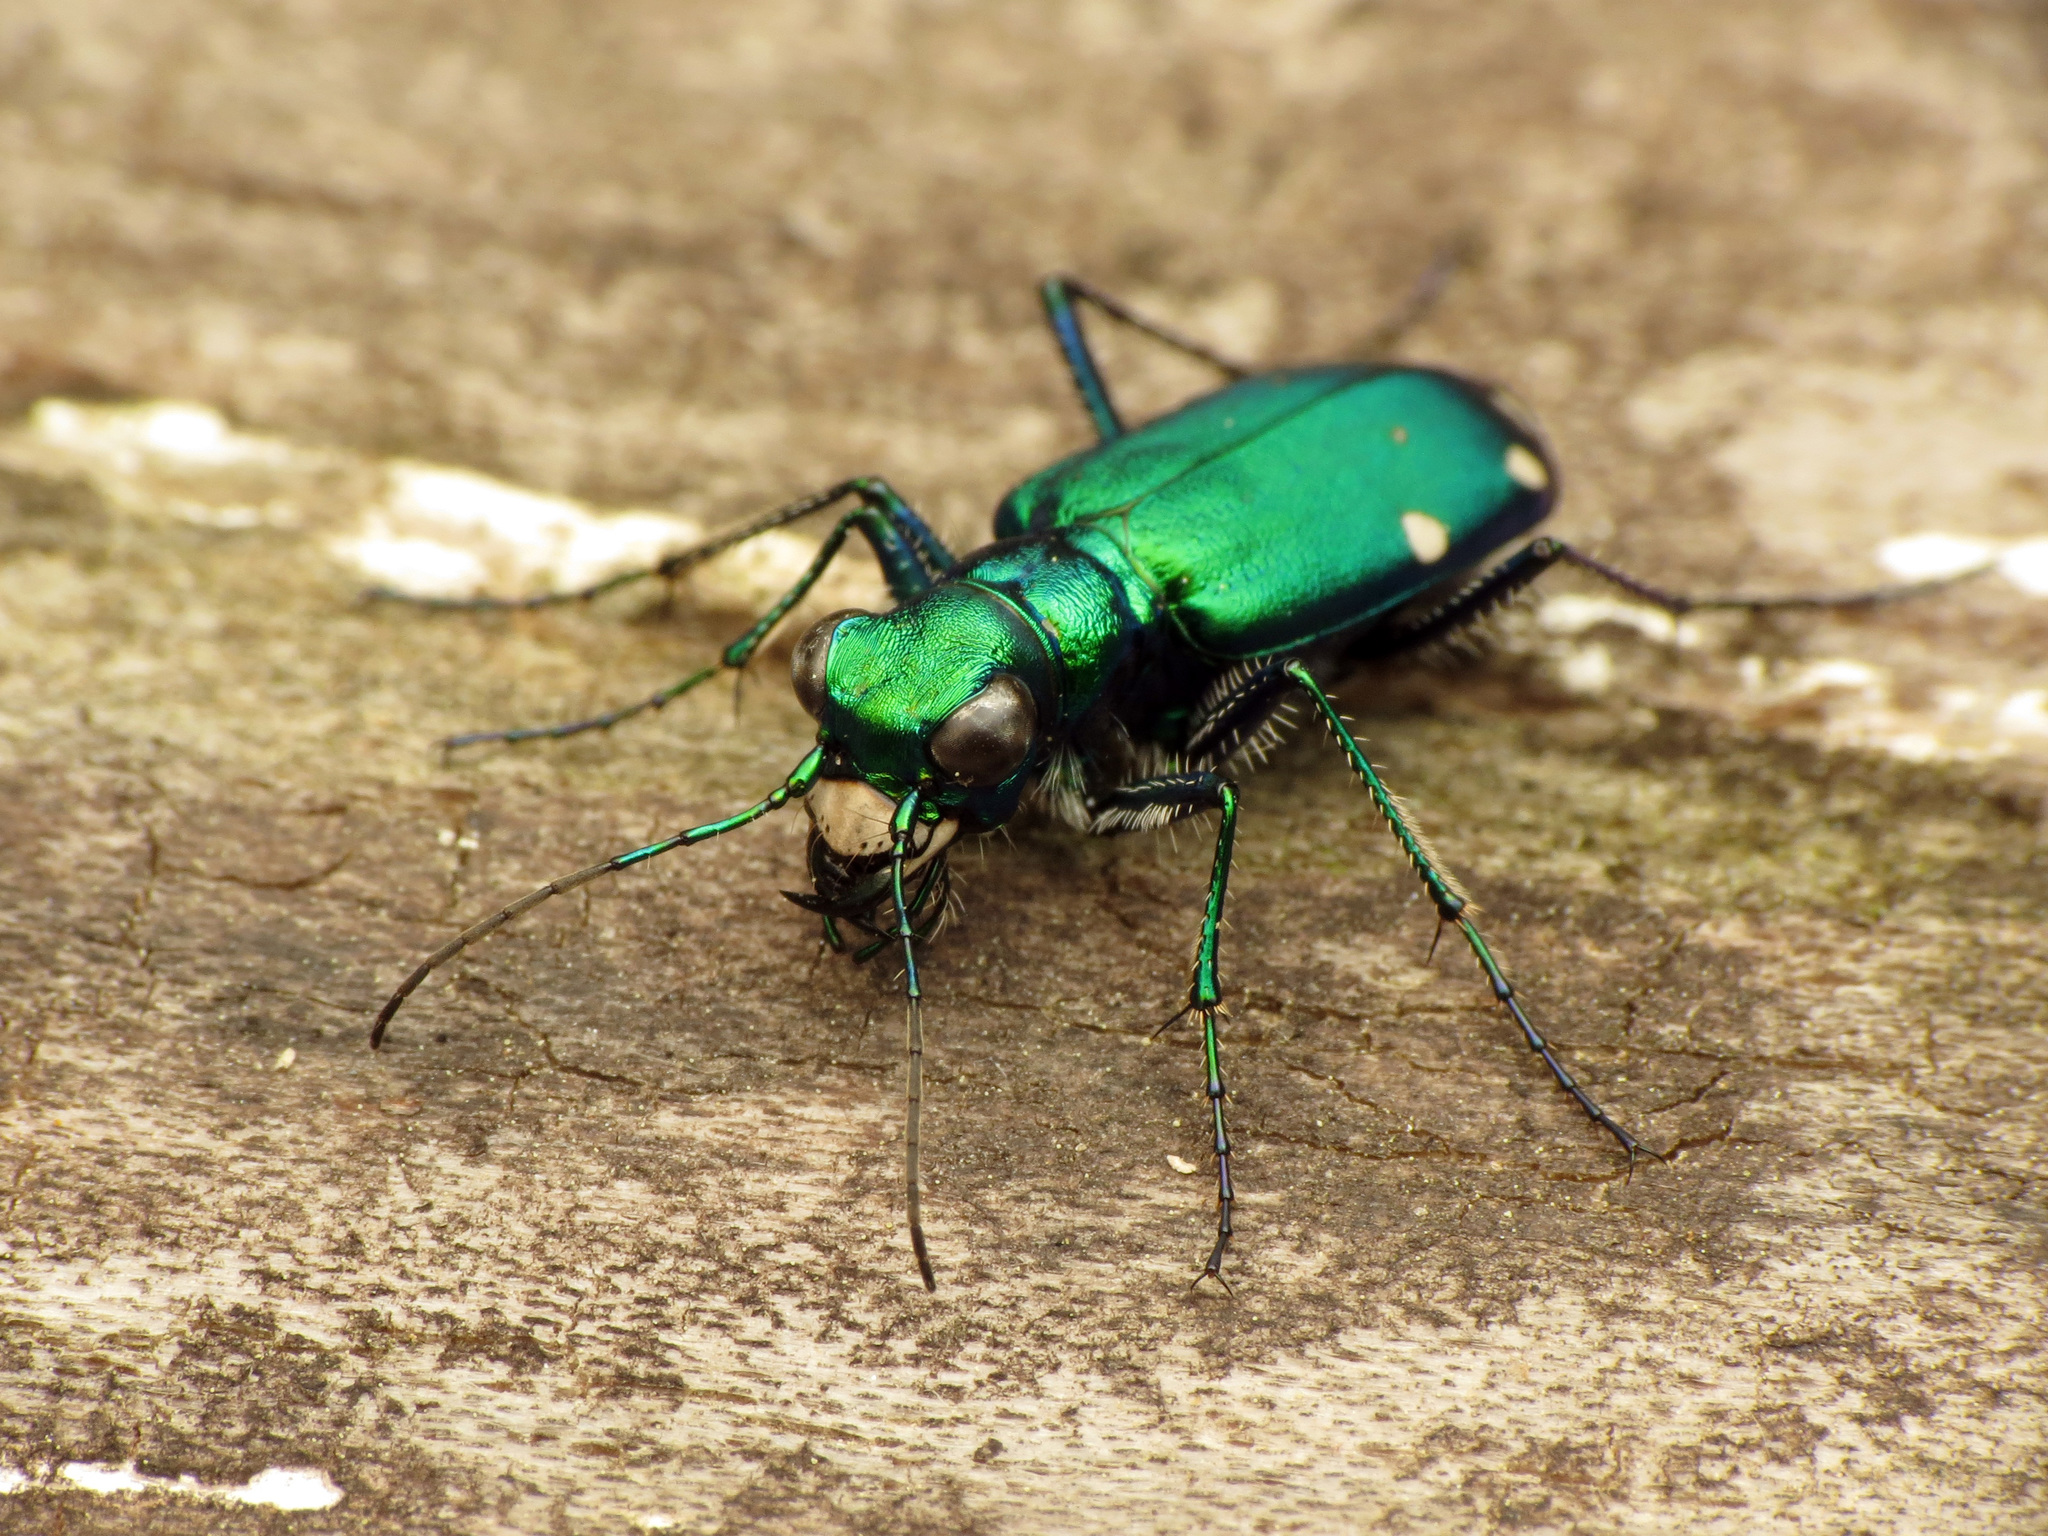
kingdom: Animalia
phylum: Arthropoda
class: Insecta
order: Coleoptera
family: Carabidae
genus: Cicindela
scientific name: Cicindela sexguttata
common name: Six-spotted tiger beetle
